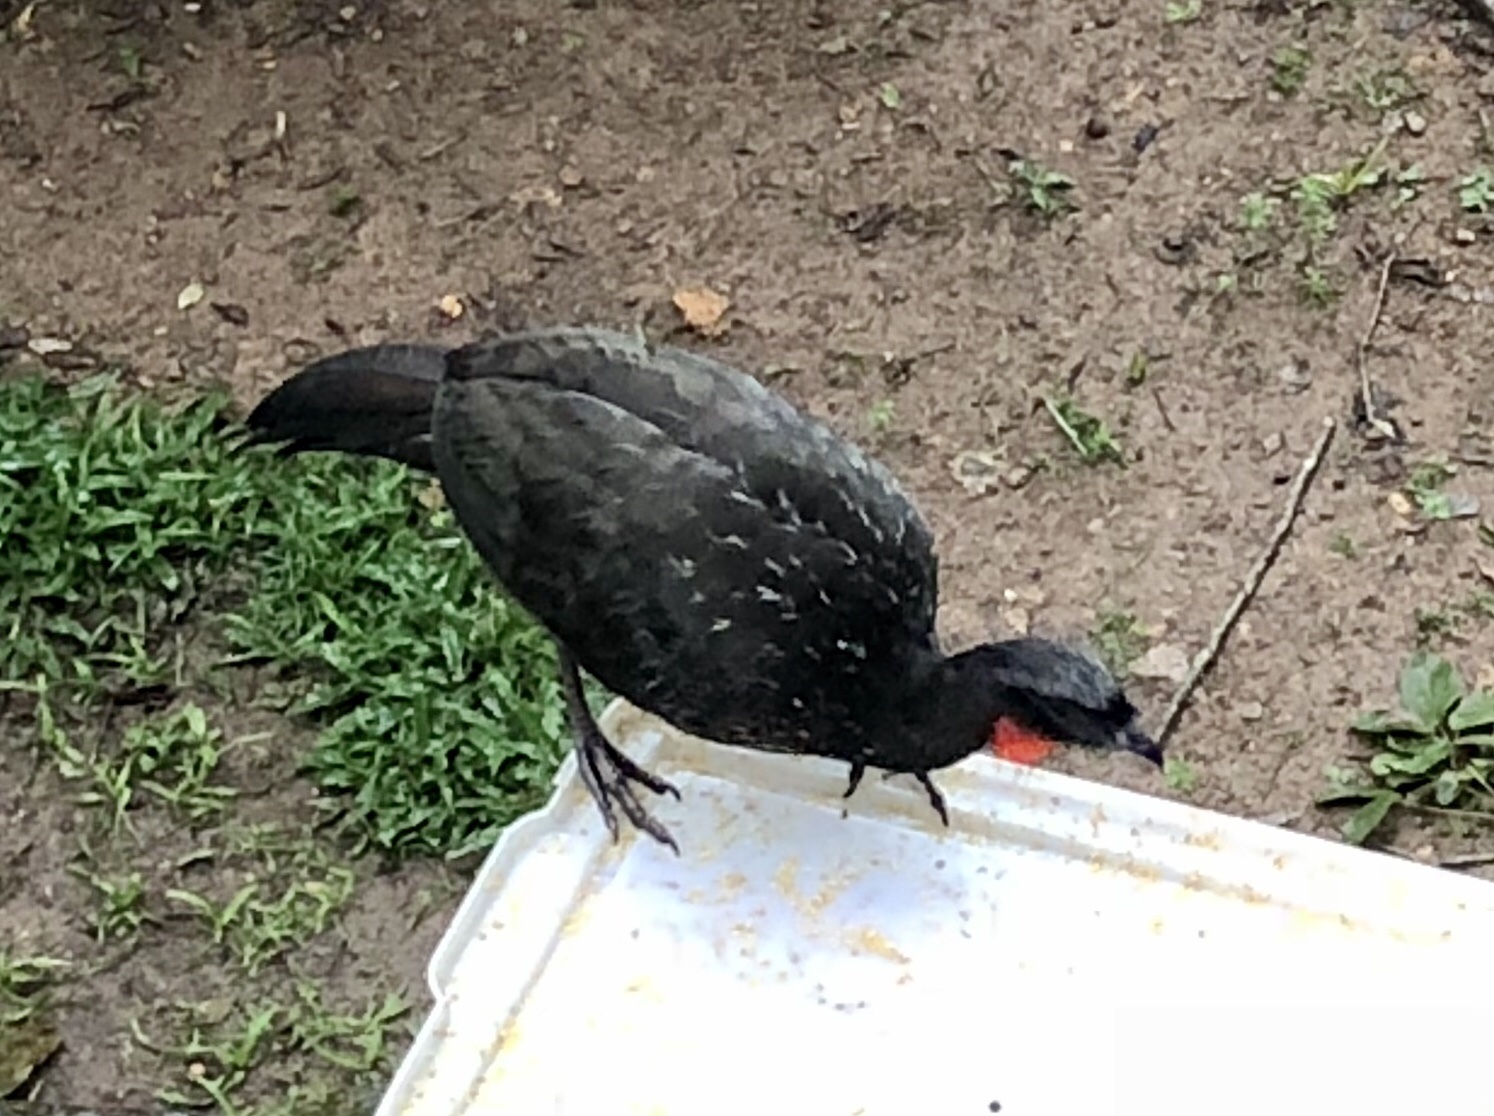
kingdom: Animalia
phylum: Chordata
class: Aves
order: Galliformes
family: Cracidae
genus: Penelope
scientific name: Penelope obscura
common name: Dusky-legged guan
